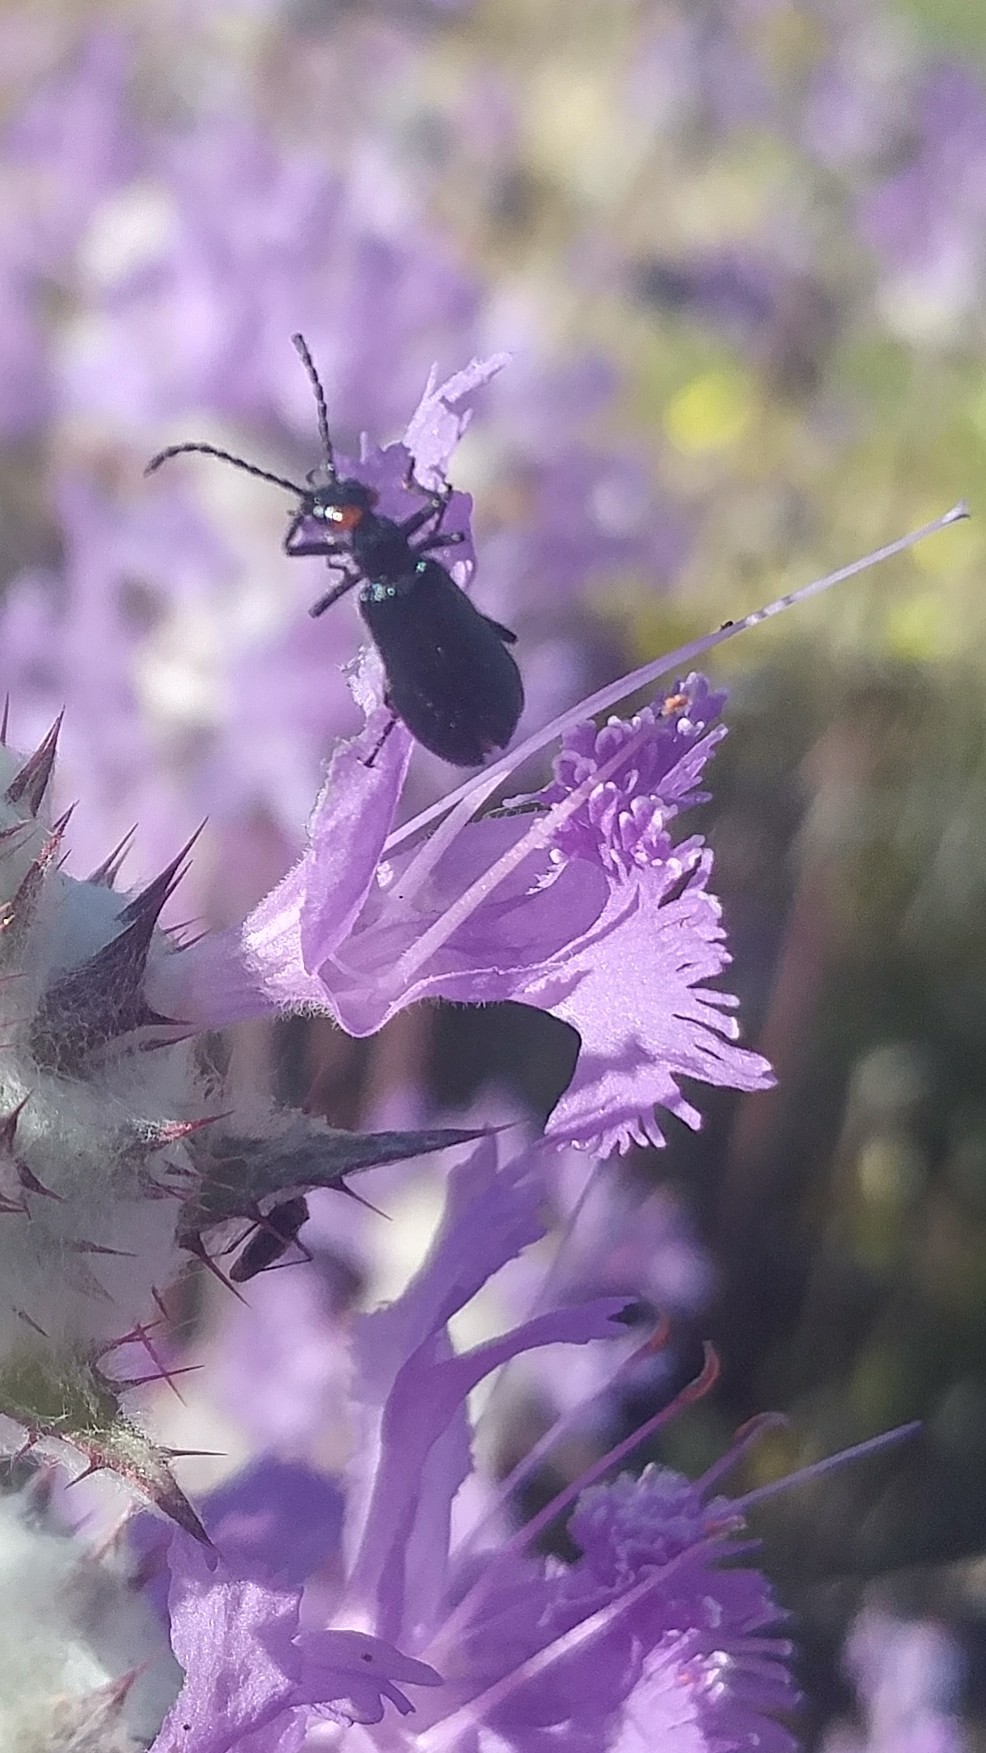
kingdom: Animalia
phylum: Arthropoda
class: Insecta
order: Coleoptera
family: Meloidae
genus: Lytta
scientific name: Lytta auriculata
